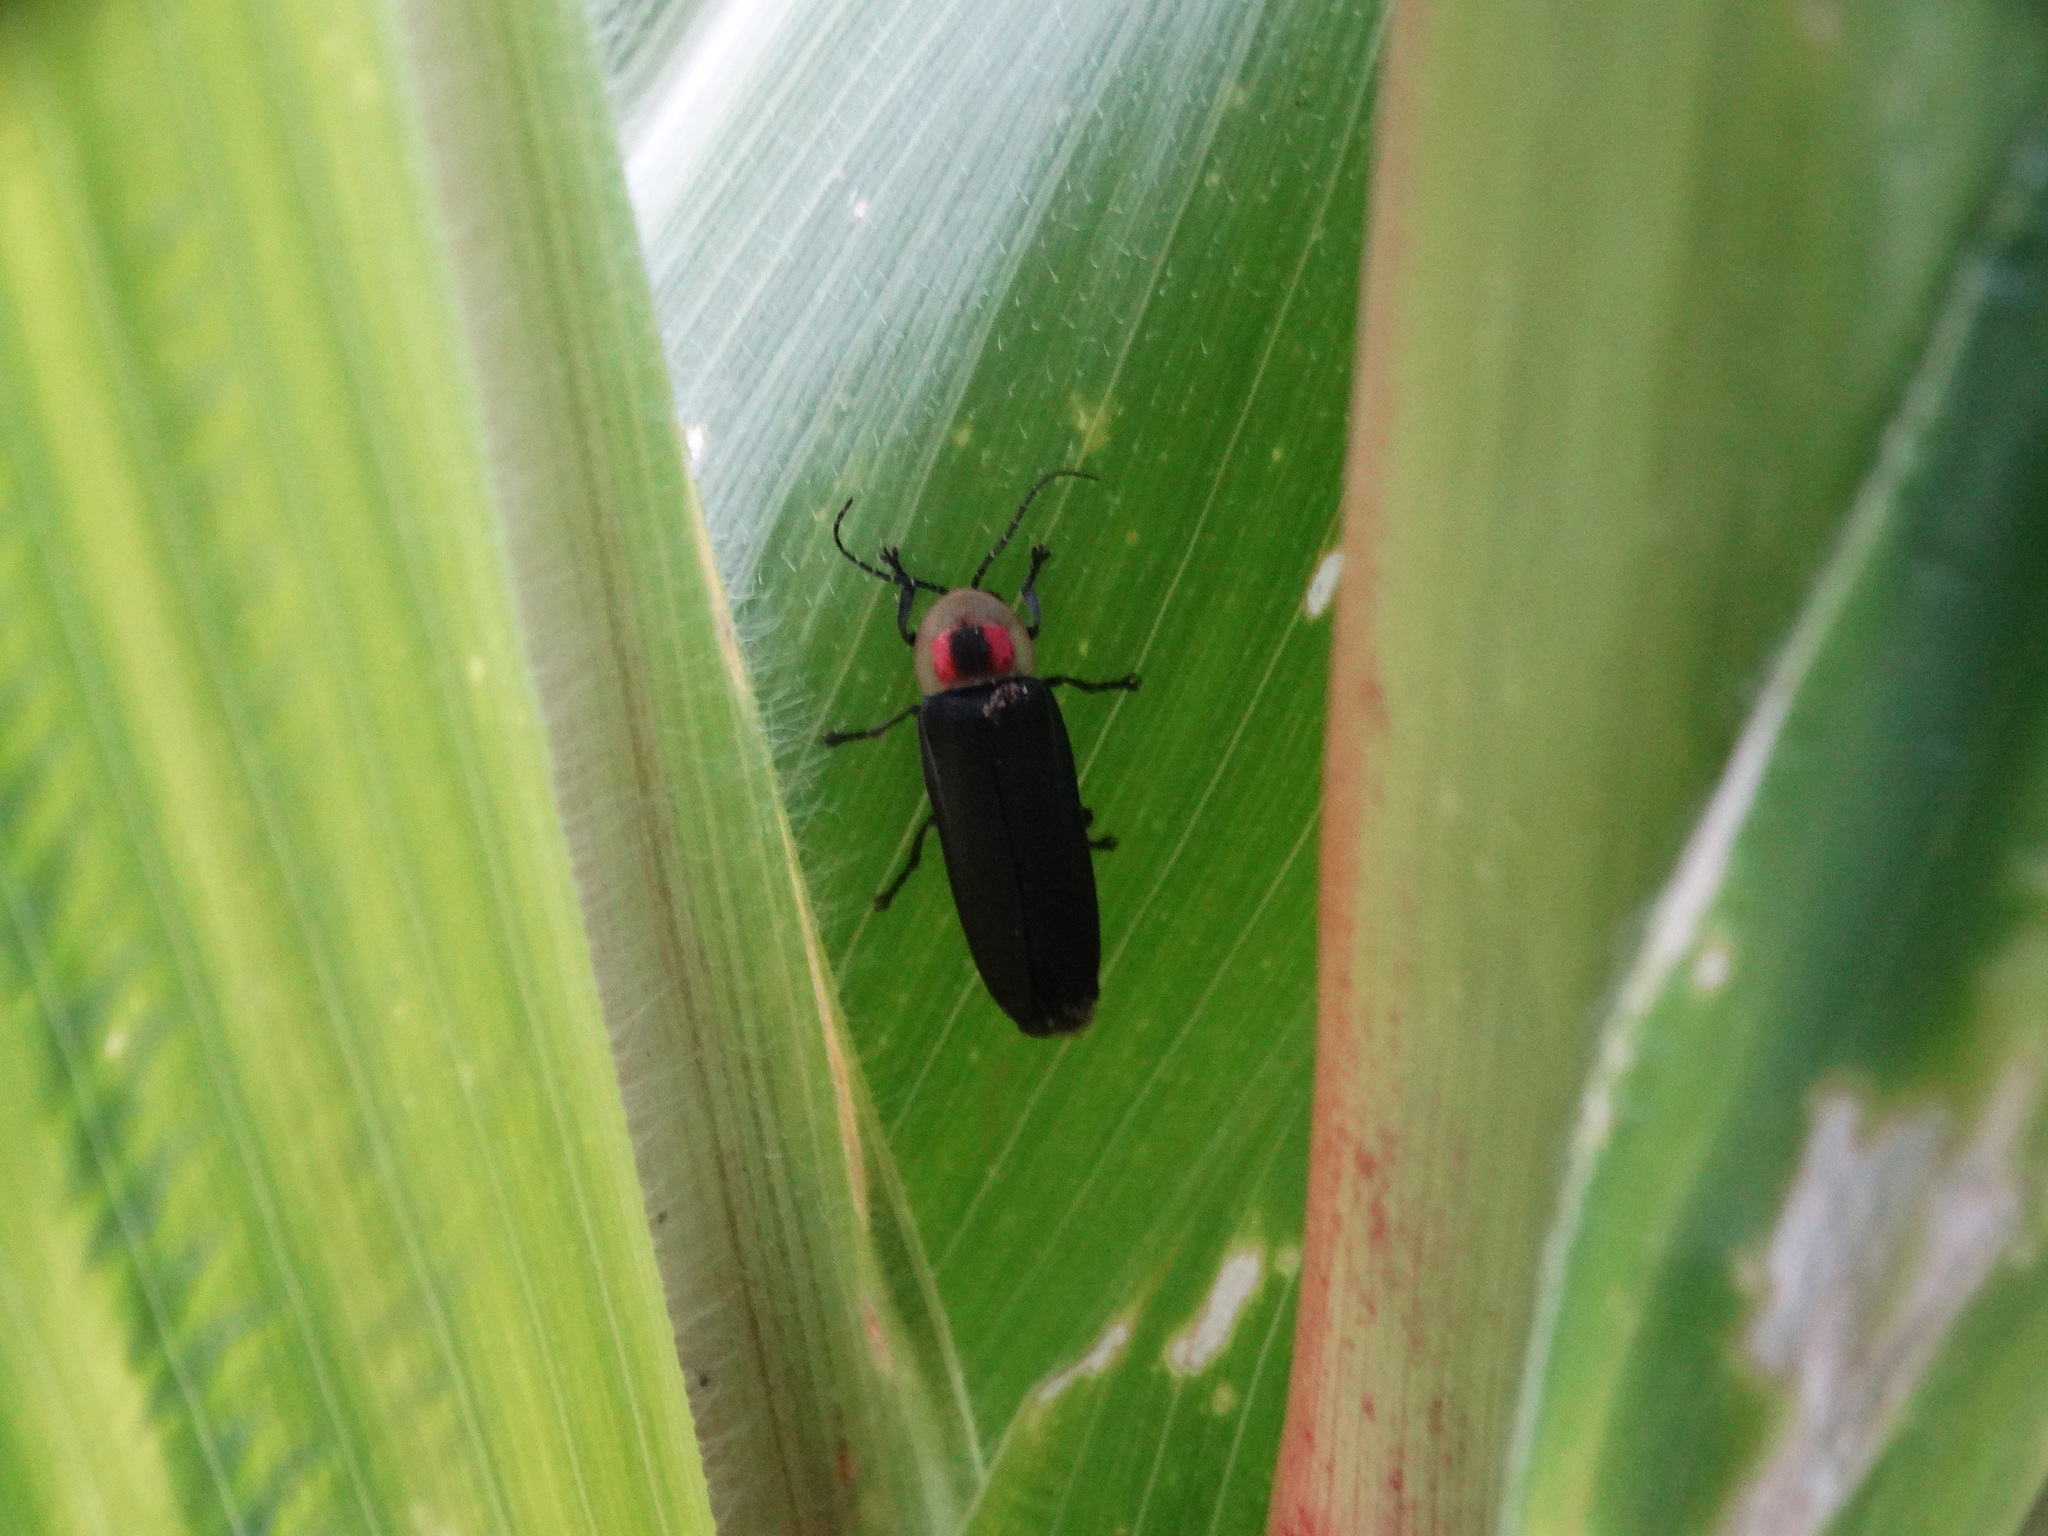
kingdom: Animalia
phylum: Arthropoda
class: Insecta
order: Coleoptera
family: Lampyridae
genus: Photinus
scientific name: Photinus extensus
